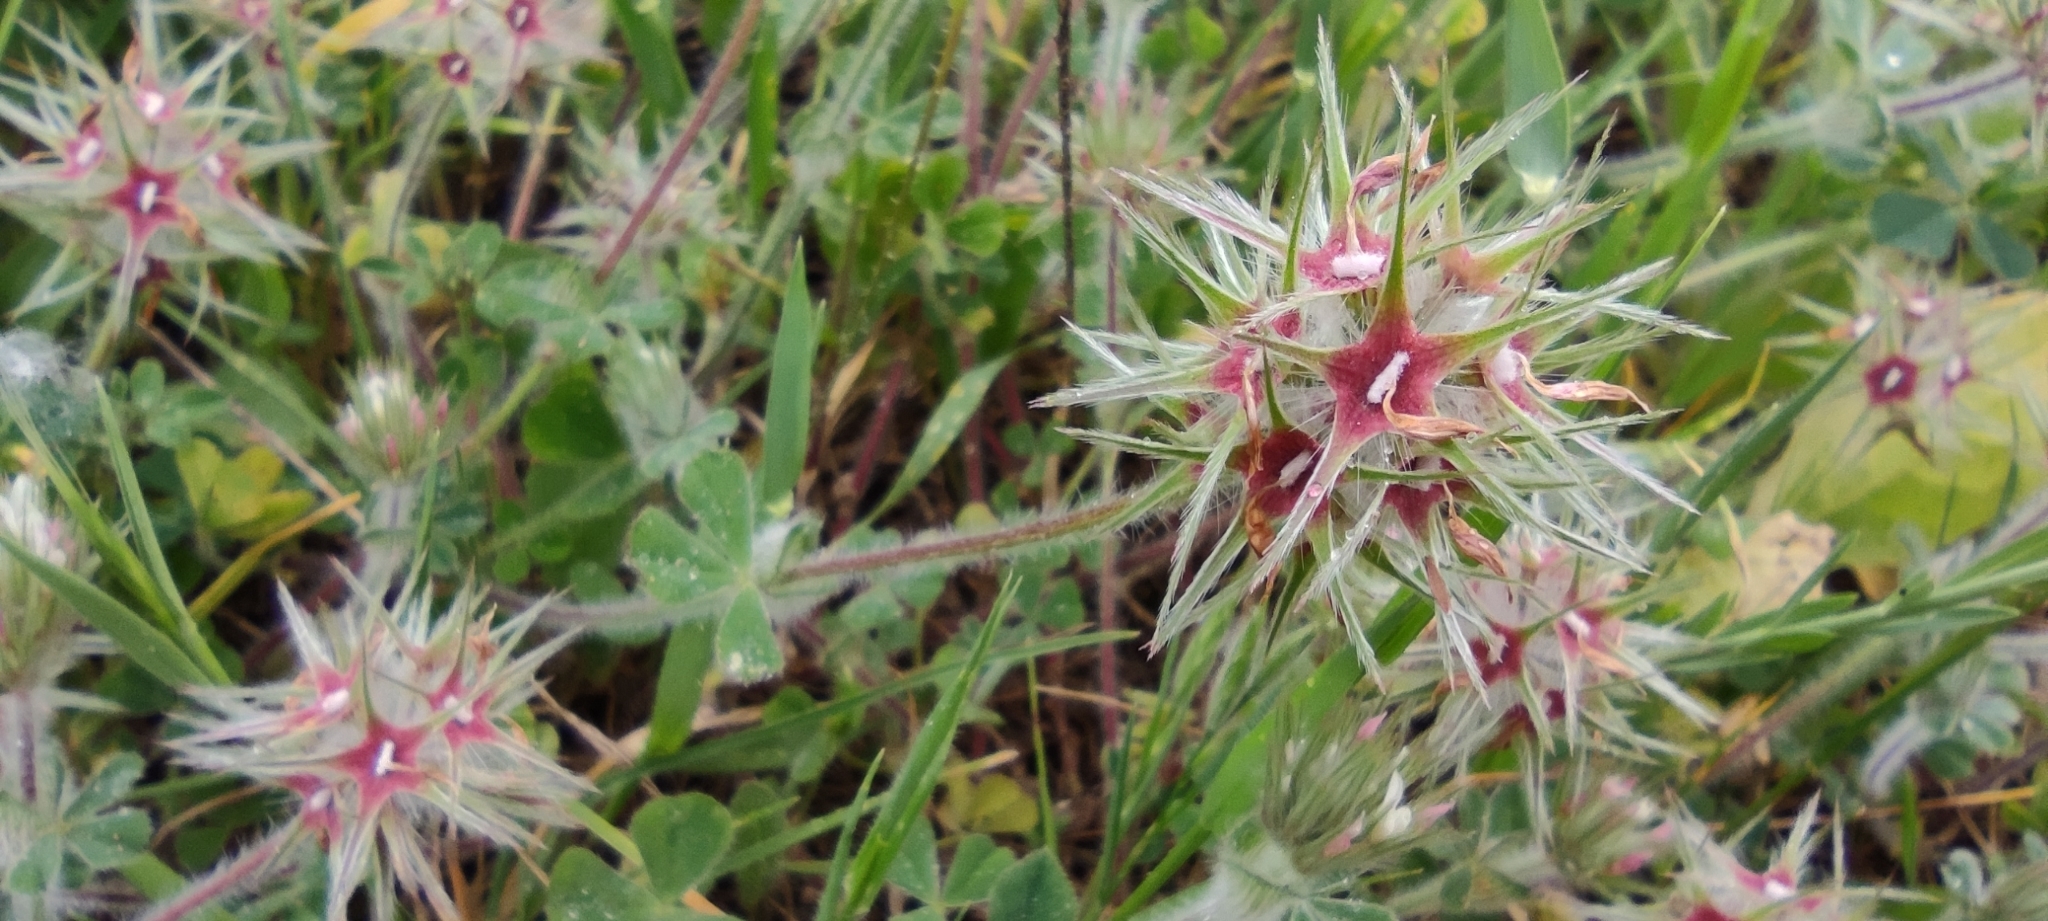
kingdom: Plantae
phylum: Tracheophyta
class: Magnoliopsida
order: Fabales
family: Fabaceae
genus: Trifolium
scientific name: Trifolium stellatum
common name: Starry clover
